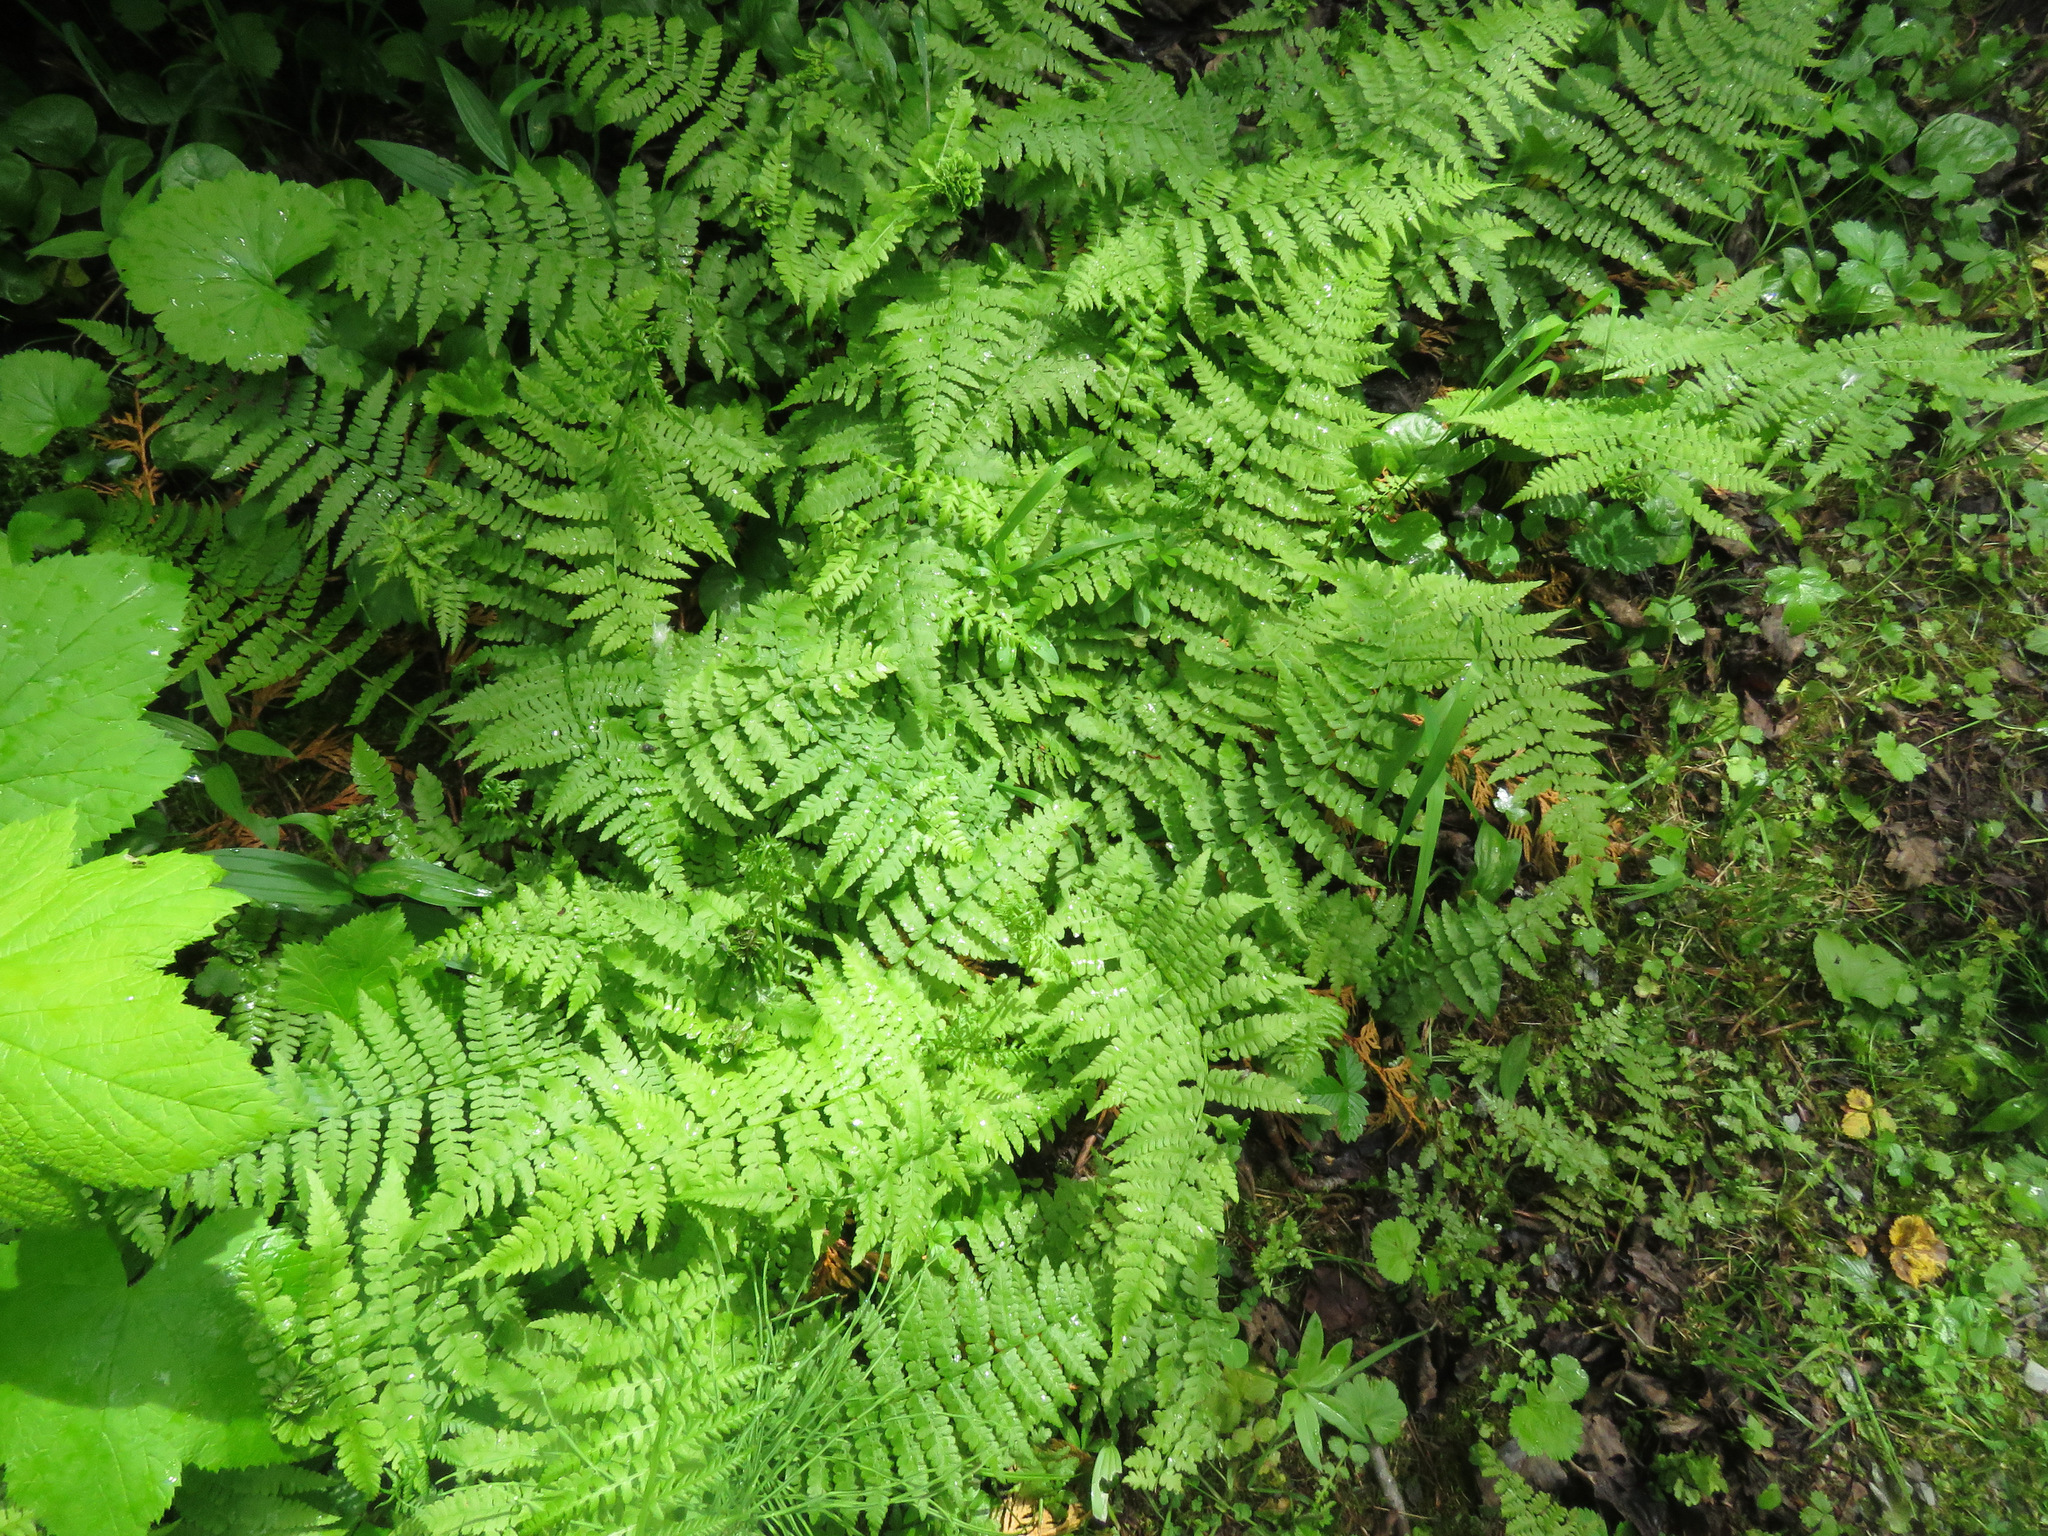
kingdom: Plantae
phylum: Tracheophyta
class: Polypodiopsida
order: Polypodiales
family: Athyriaceae
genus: Athyrium
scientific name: Athyrium filix-femina
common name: Lady fern
